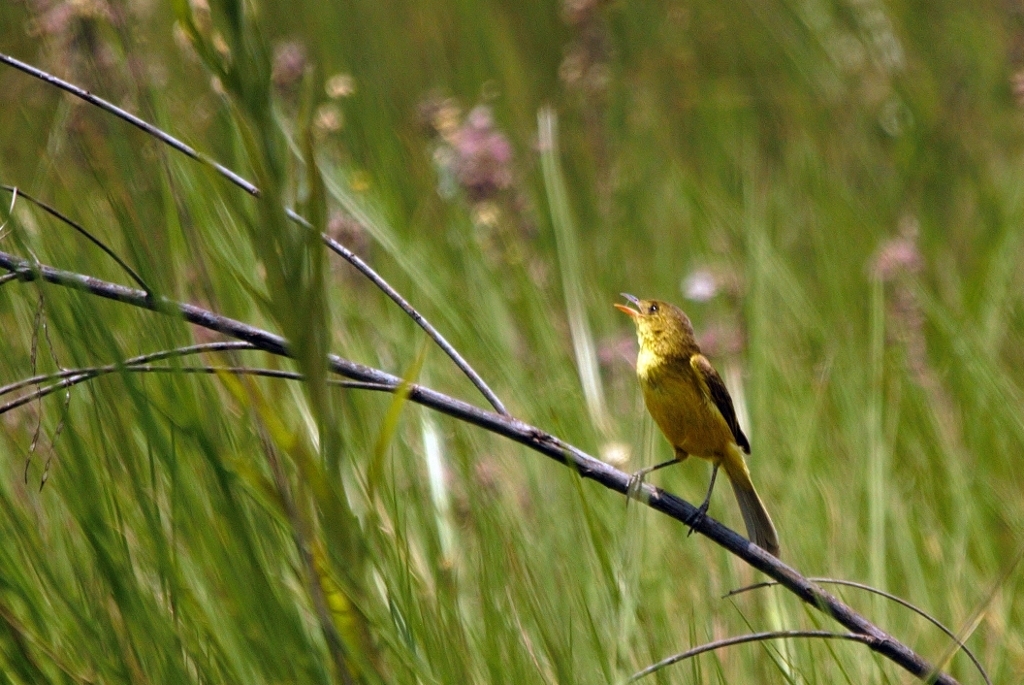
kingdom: Animalia
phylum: Chordata
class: Aves
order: Passeriformes
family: Acrocephalidae
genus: Iduna
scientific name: Iduna natalensis
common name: African yellow warbler
